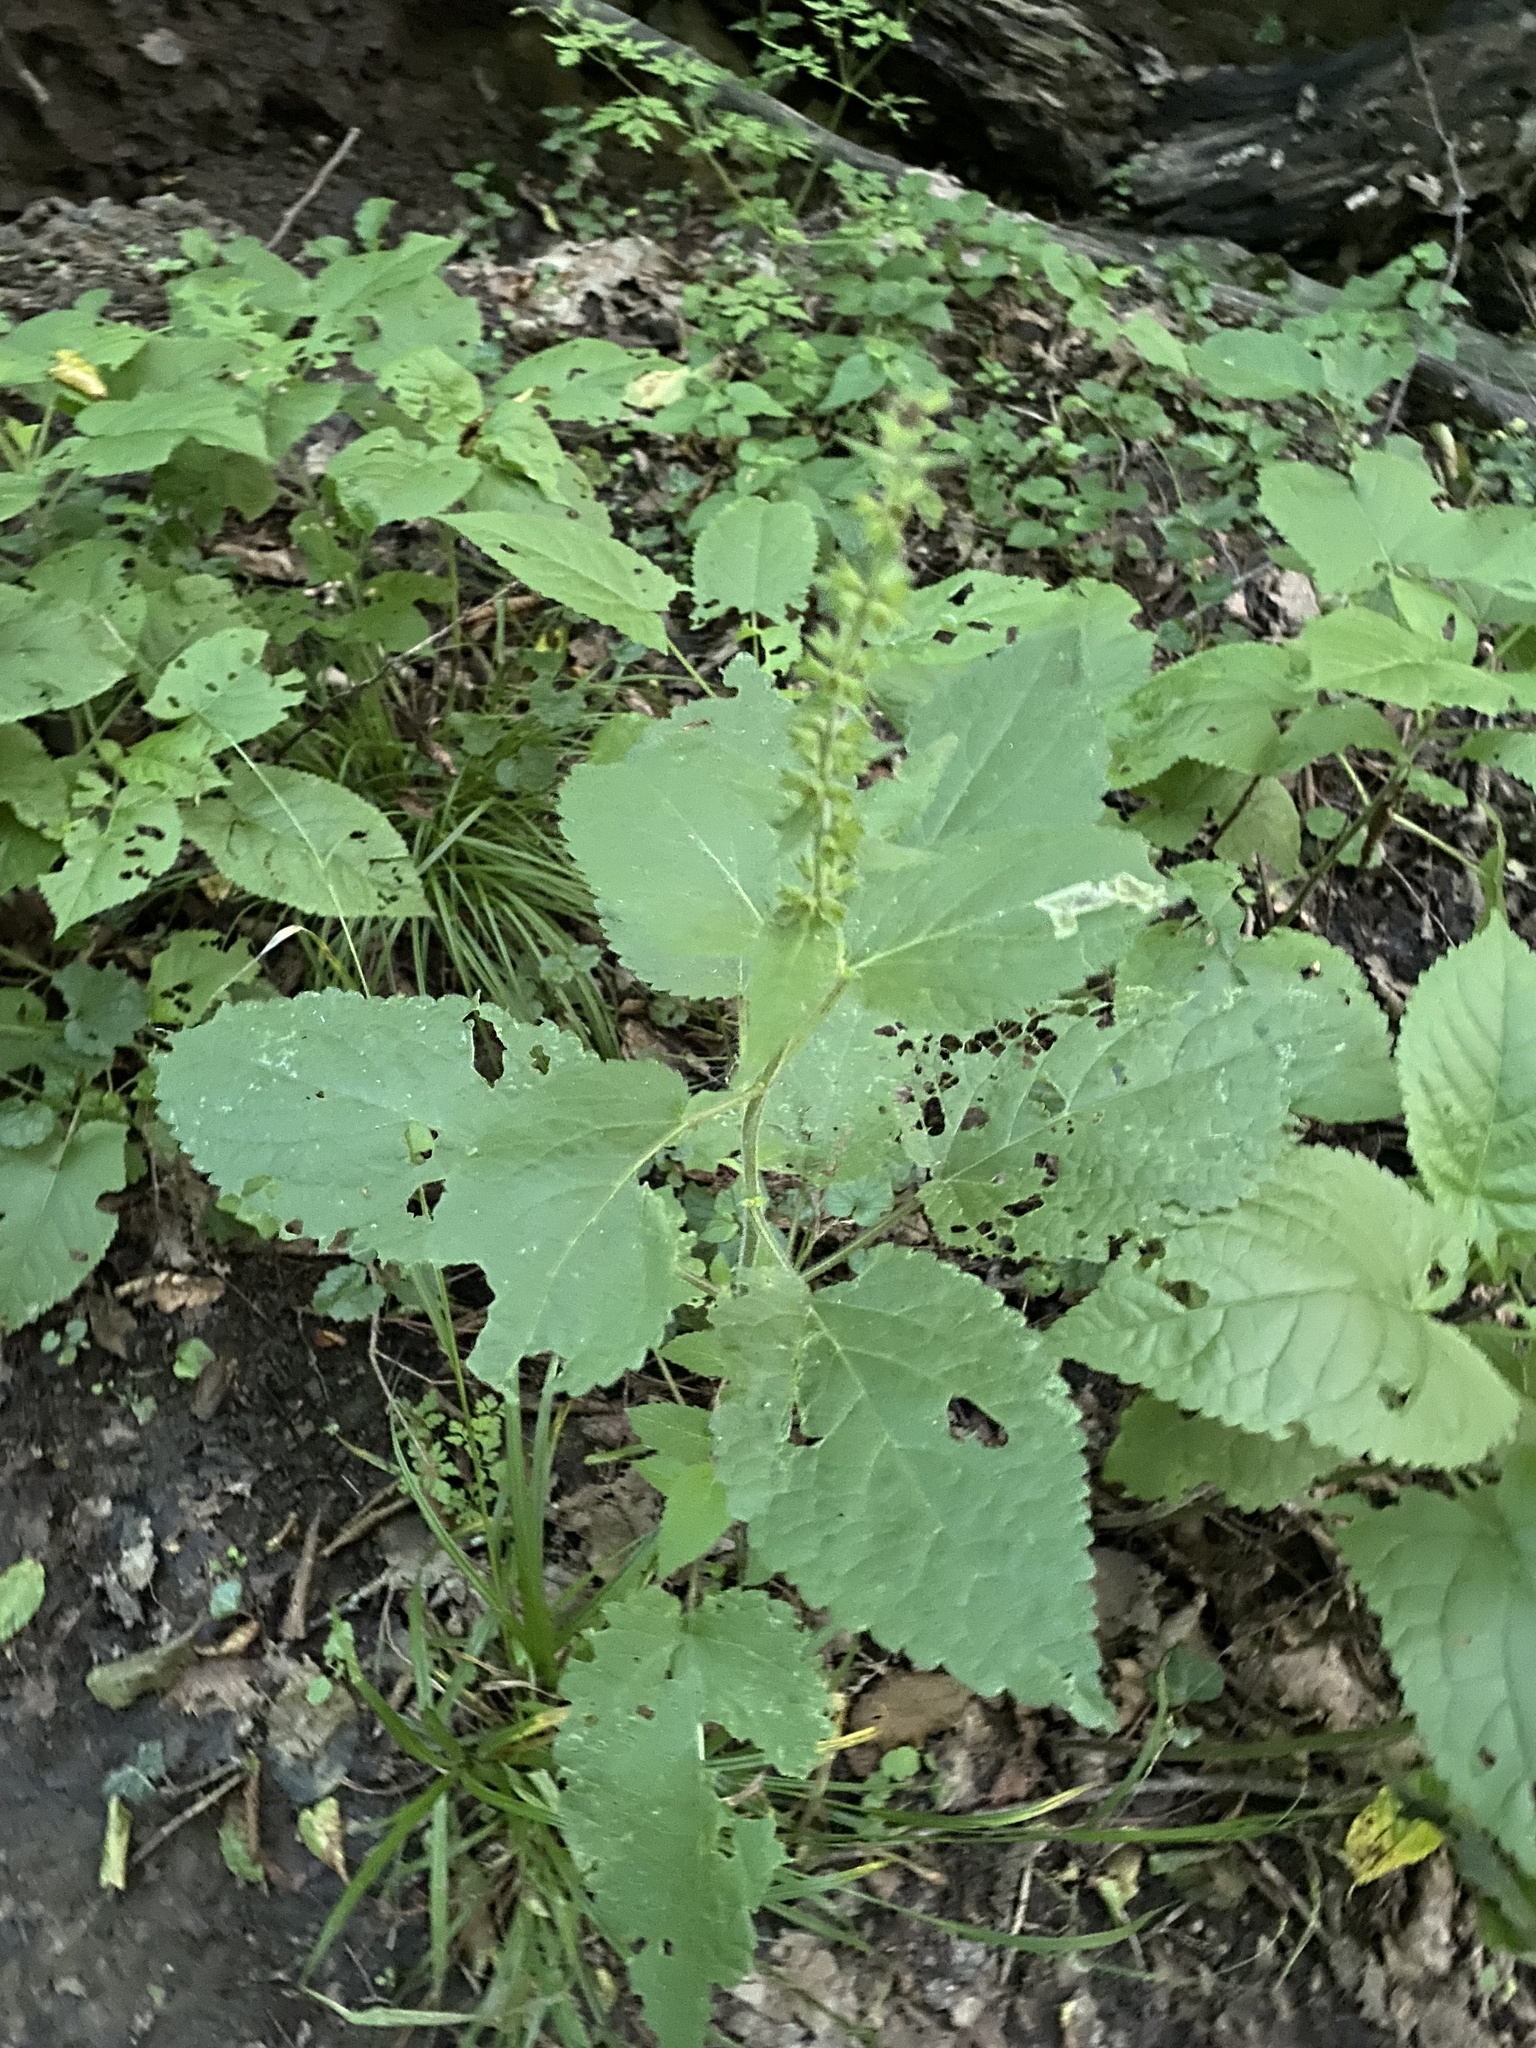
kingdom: Plantae
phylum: Tracheophyta
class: Magnoliopsida
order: Lamiales
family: Lamiaceae
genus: Stachys
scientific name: Stachys sylvatica
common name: Hedge woundwort
